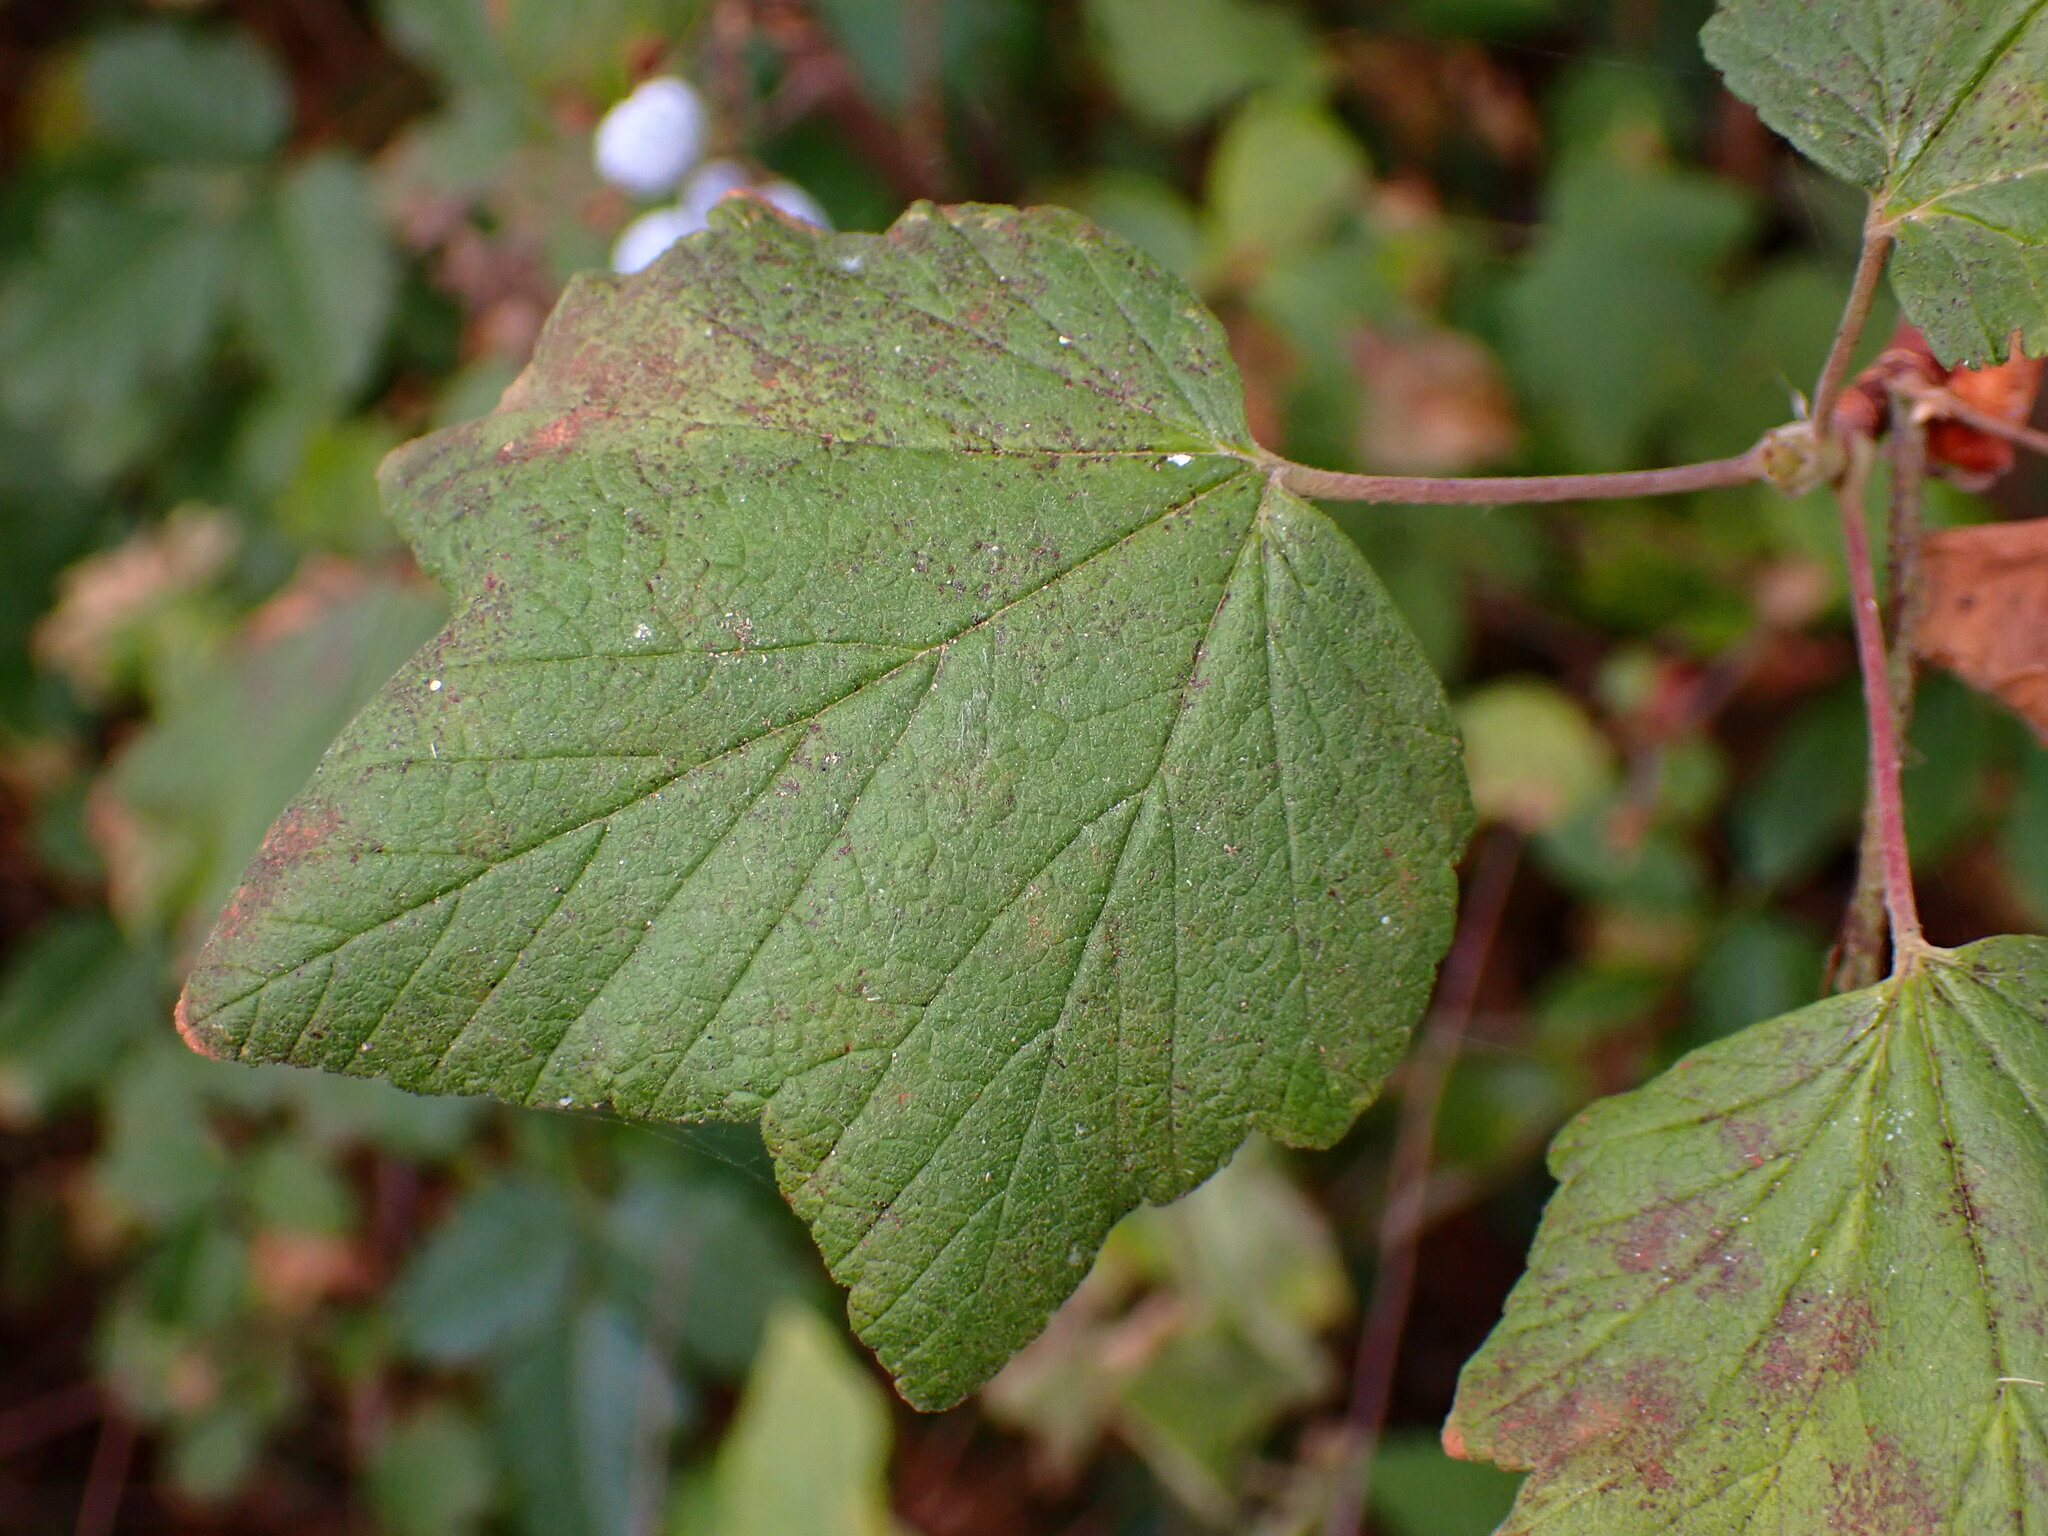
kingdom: Plantae
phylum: Tracheophyta
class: Magnoliopsida
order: Saxifragales
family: Grossulariaceae
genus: Ribes
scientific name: Ribes sanguineum
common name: Flowering currant
